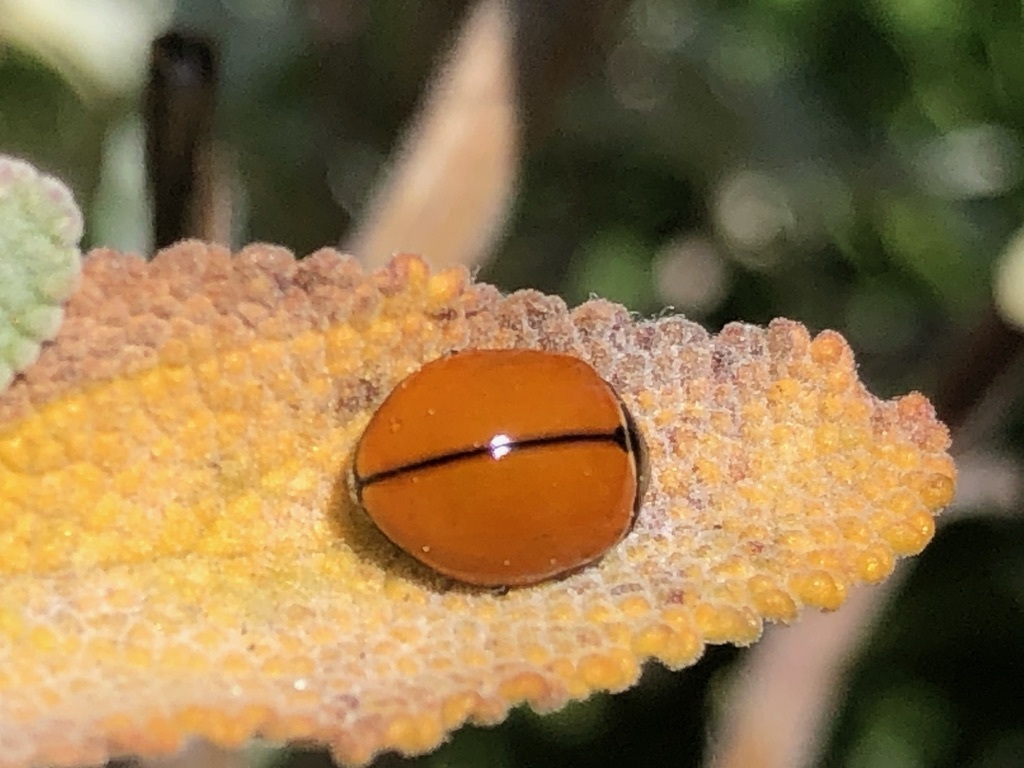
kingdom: Animalia
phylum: Arthropoda
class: Insecta
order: Coleoptera
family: Coccinellidae
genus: Coccinella
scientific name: Coccinella californica
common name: Lady beetle
